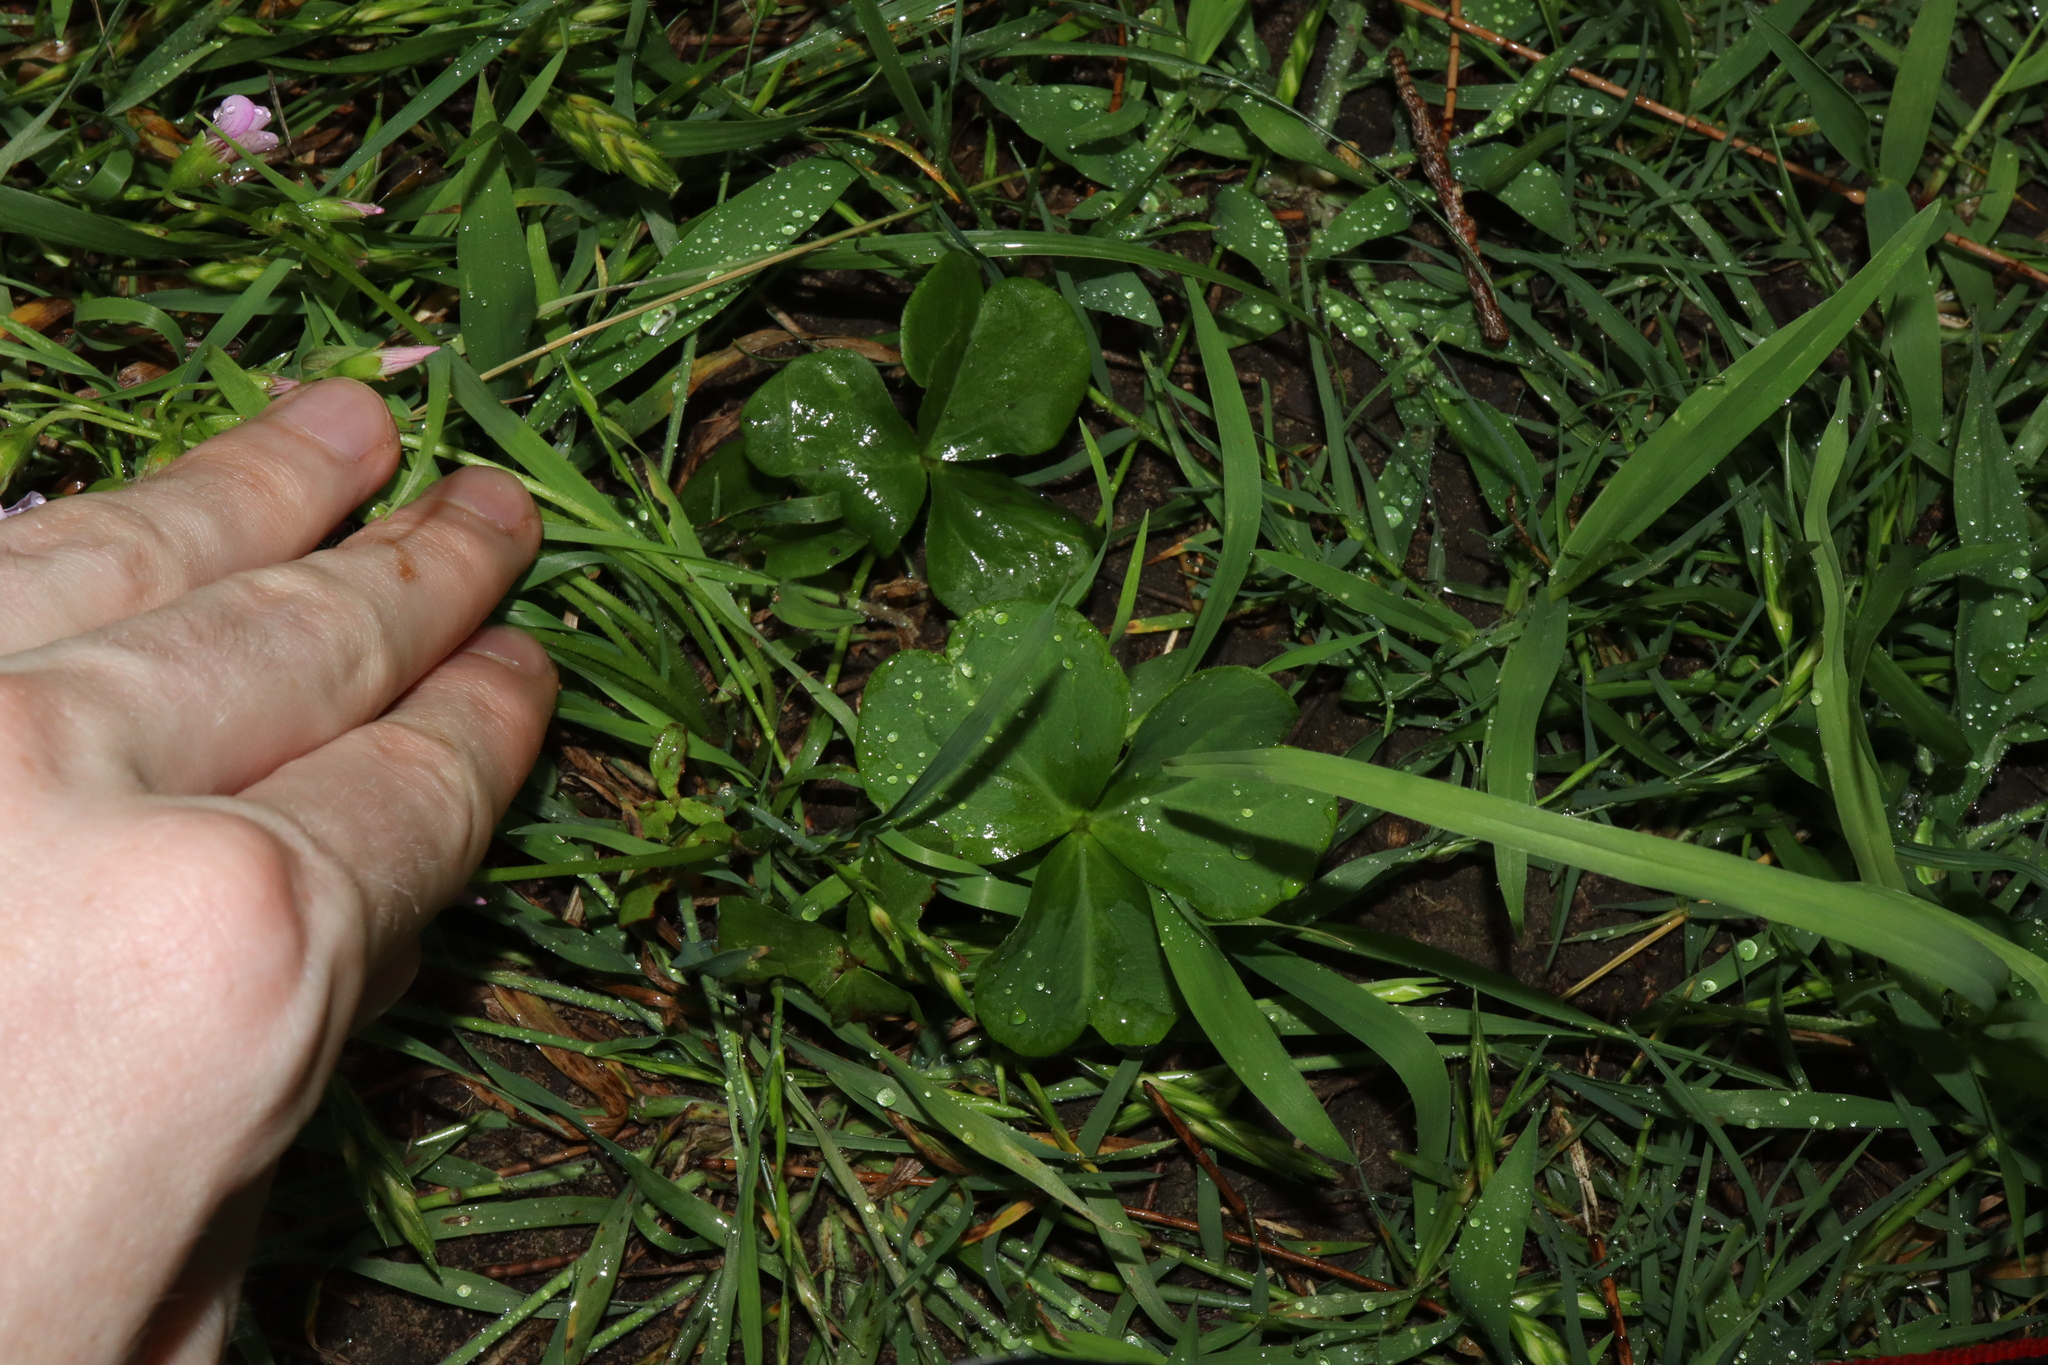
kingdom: Plantae
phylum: Tracheophyta
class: Magnoliopsida
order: Oxalidales
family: Oxalidaceae
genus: Oxalis
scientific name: Oxalis debilis
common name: Large-flowered pink-sorrel
